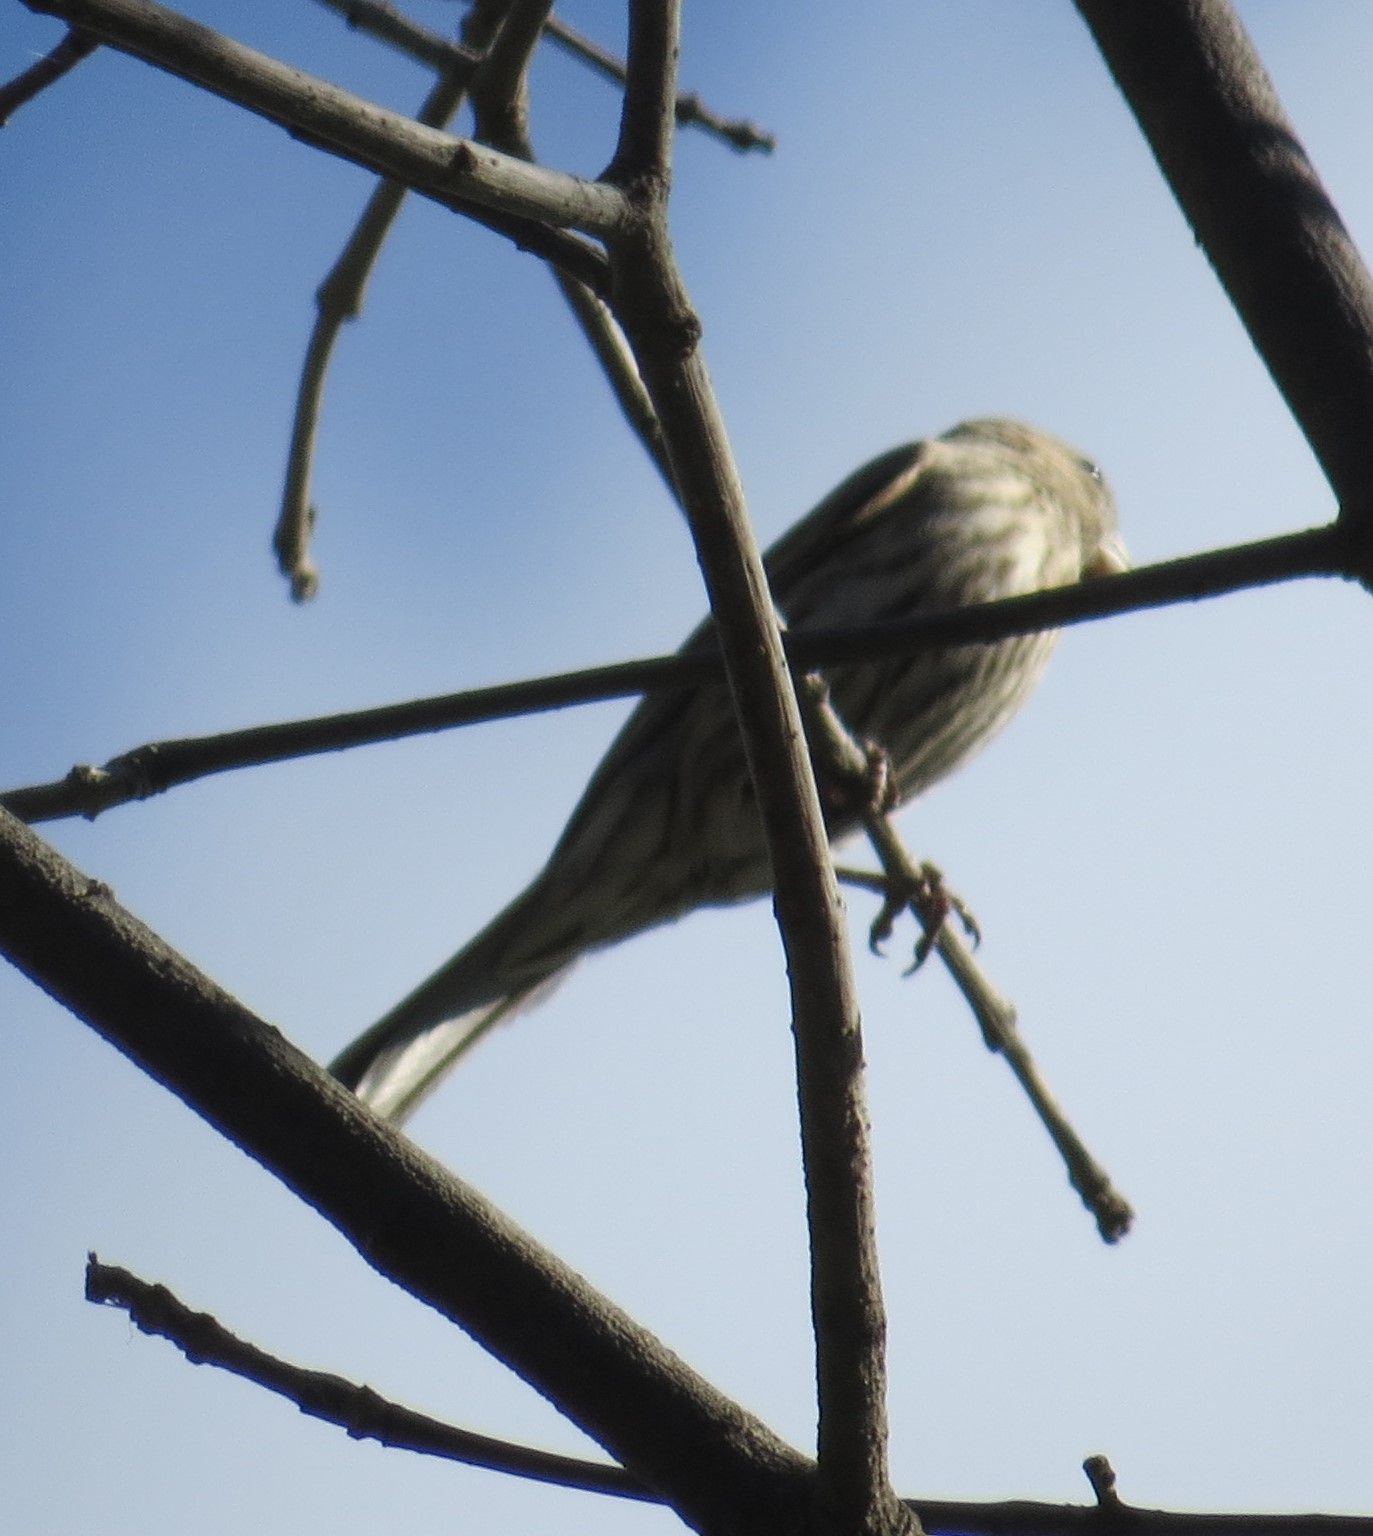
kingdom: Animalia
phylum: Chordata
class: Aves
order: Passeriformes
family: Fringillidae
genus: Haemorhous
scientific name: Haemorhous mexicanus
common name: House finch
